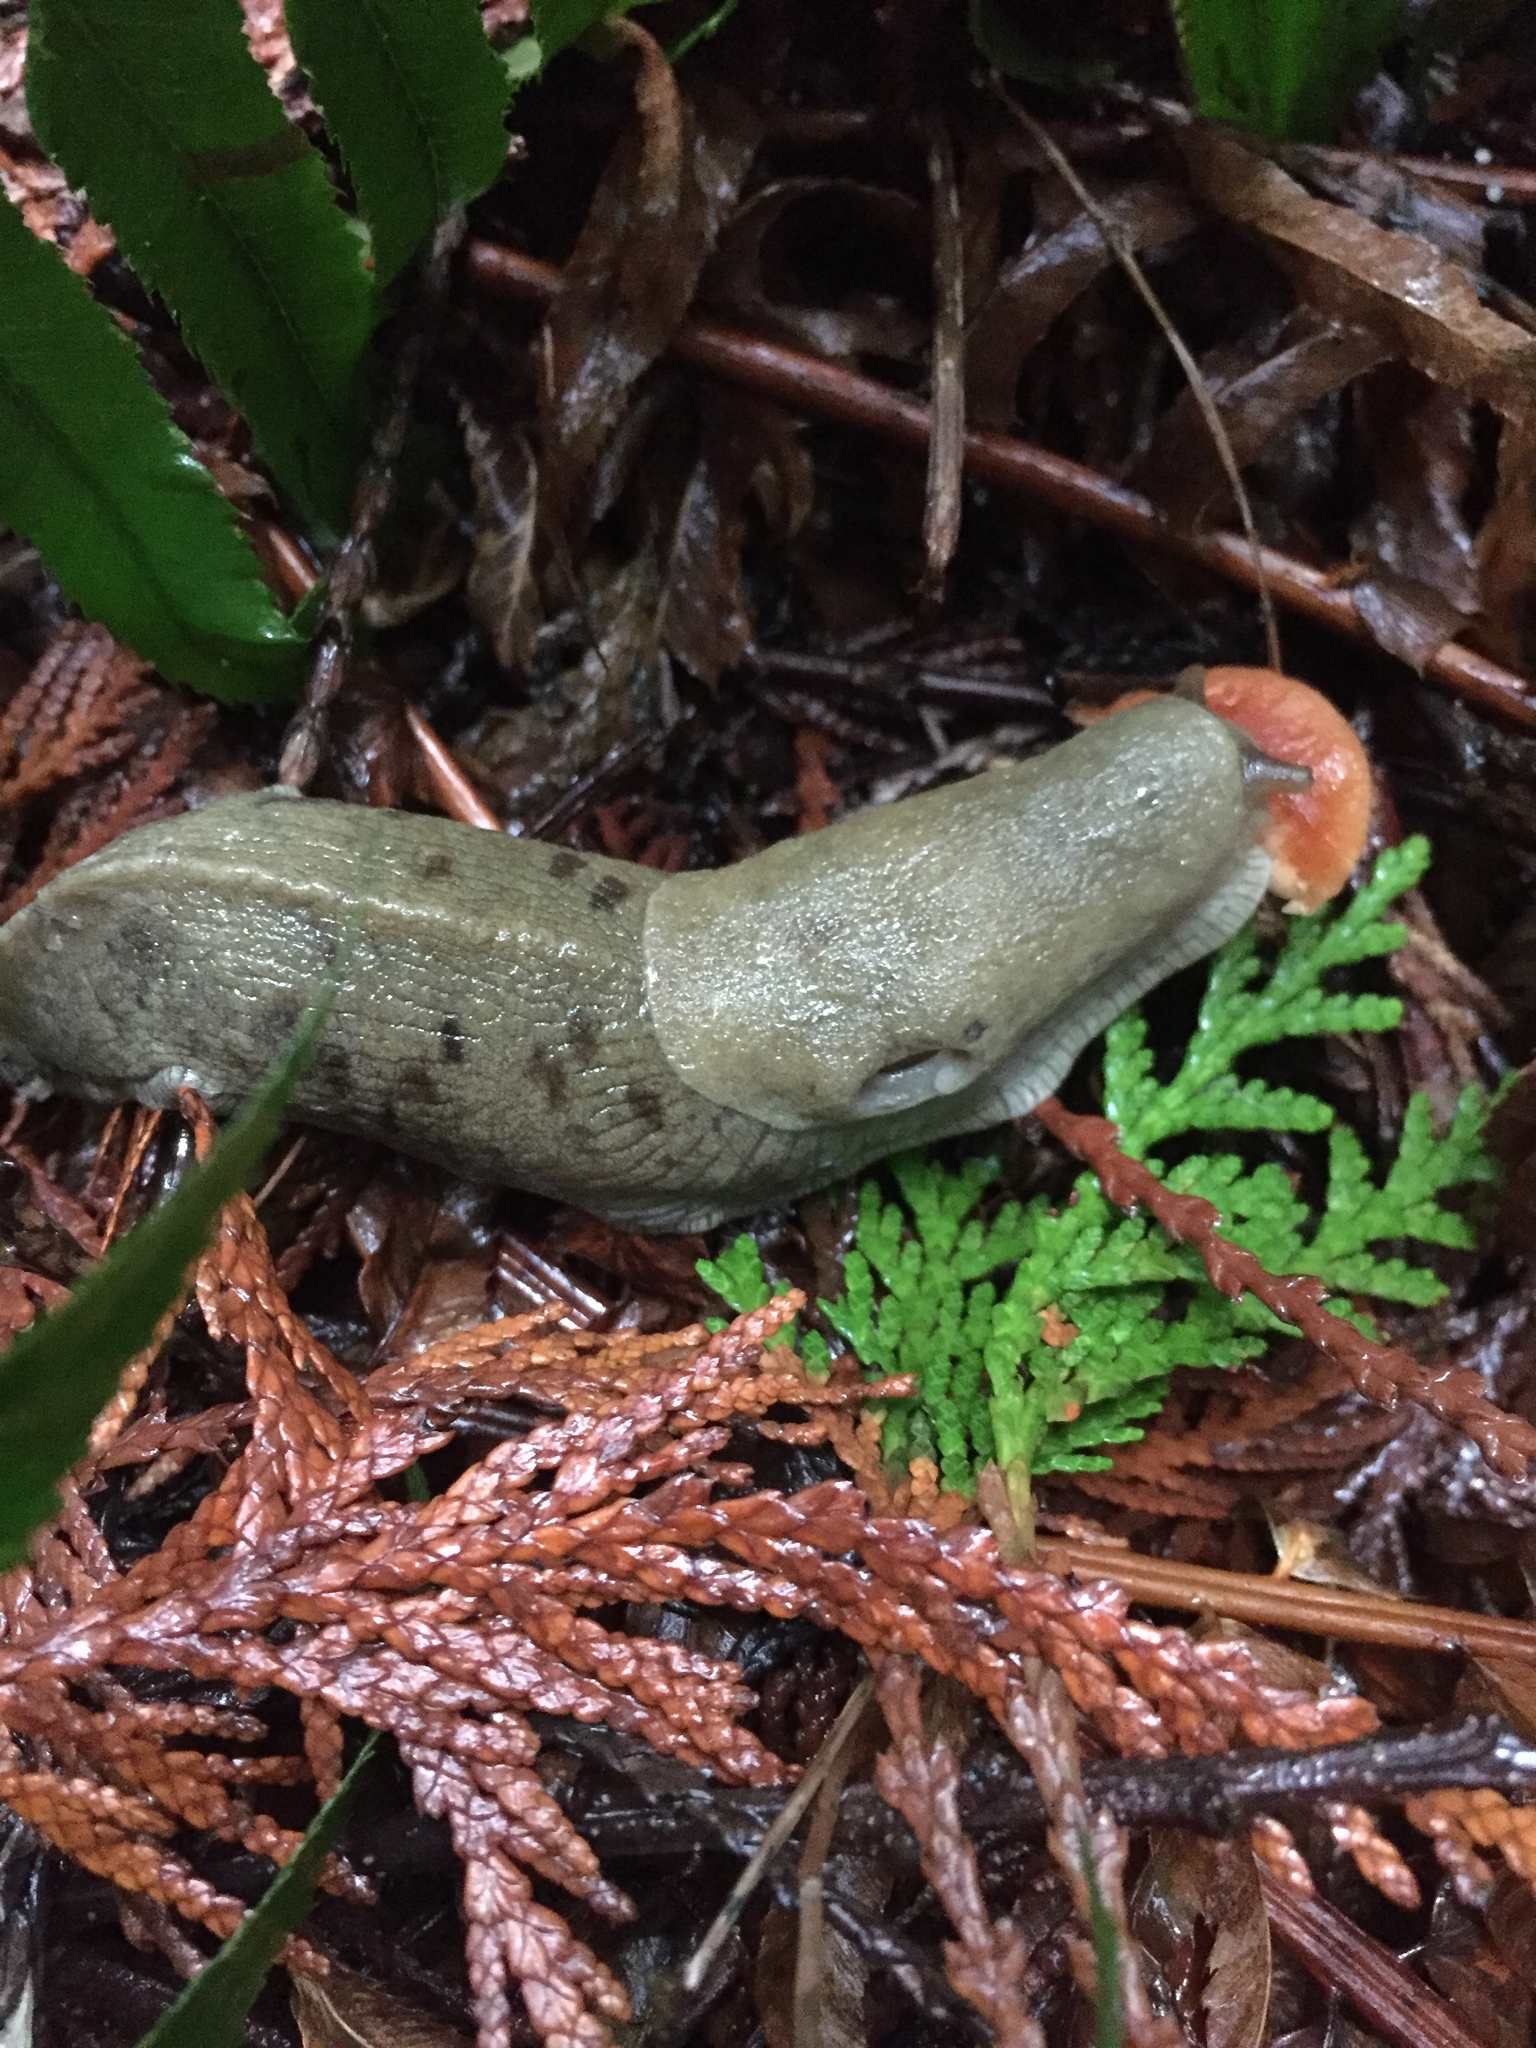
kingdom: Animalia
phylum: Mollusca
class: Gastropoda
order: Stylommatophora
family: Ariolimacidae
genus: Ariolimax
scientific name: Ariolimax columbianus
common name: Pacific banana slug
